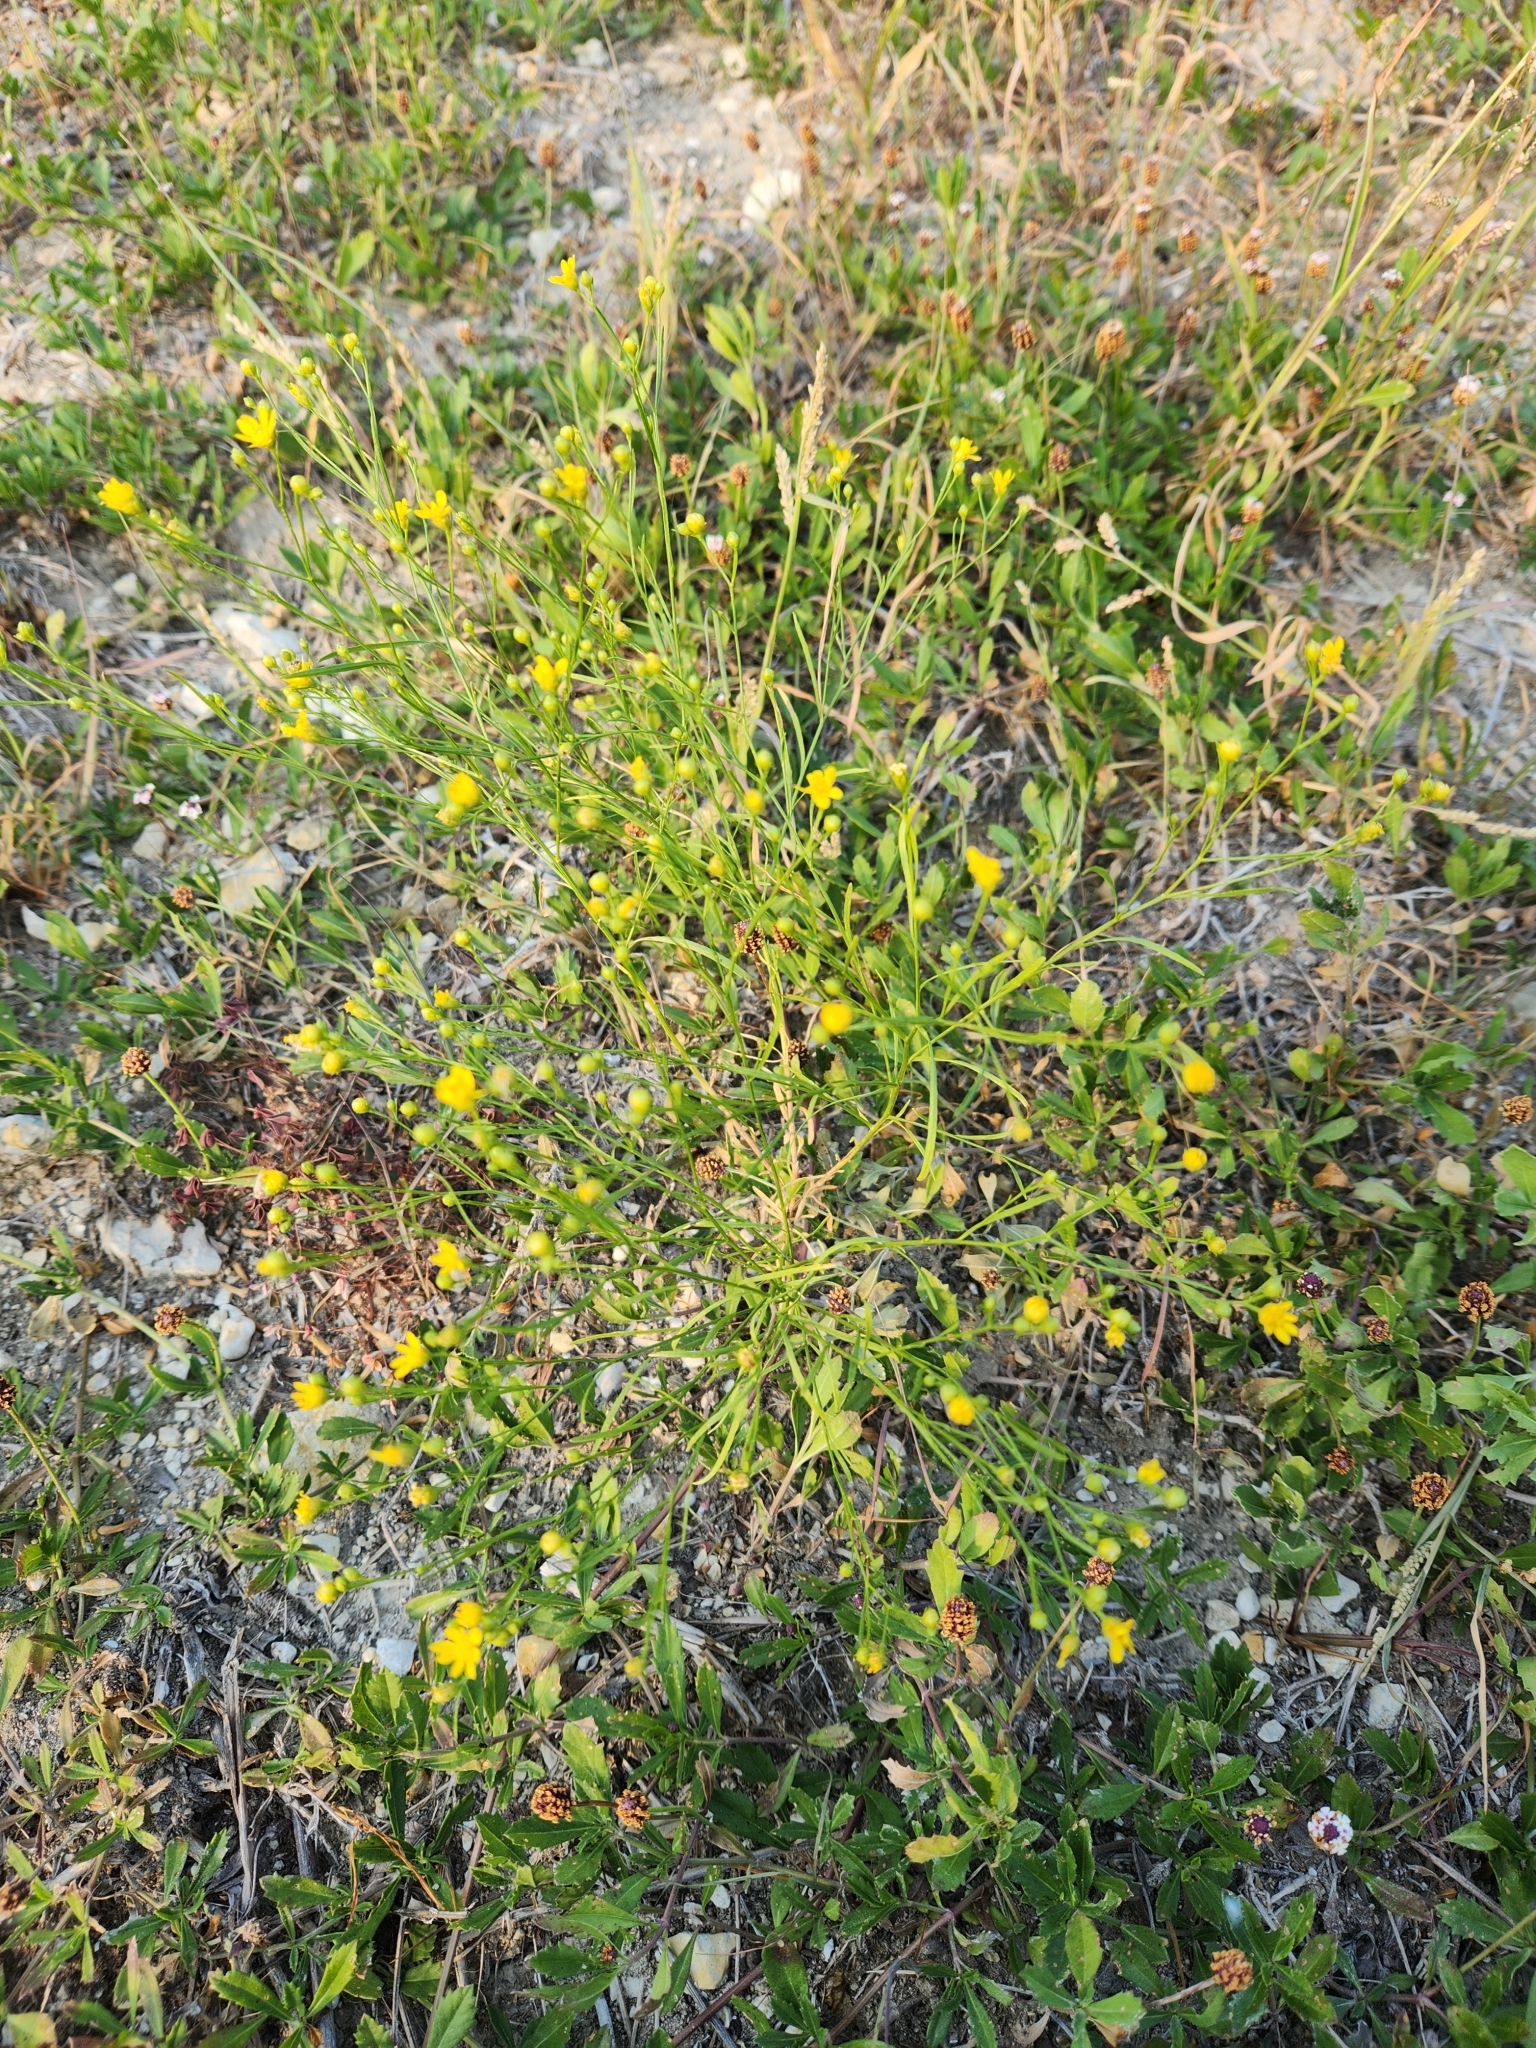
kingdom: Plantae
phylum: Tracheophyta
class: Magnoliopsida
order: Asterales
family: Asteraceae
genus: Amphiachyris
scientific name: Amphiachyris amoenum
